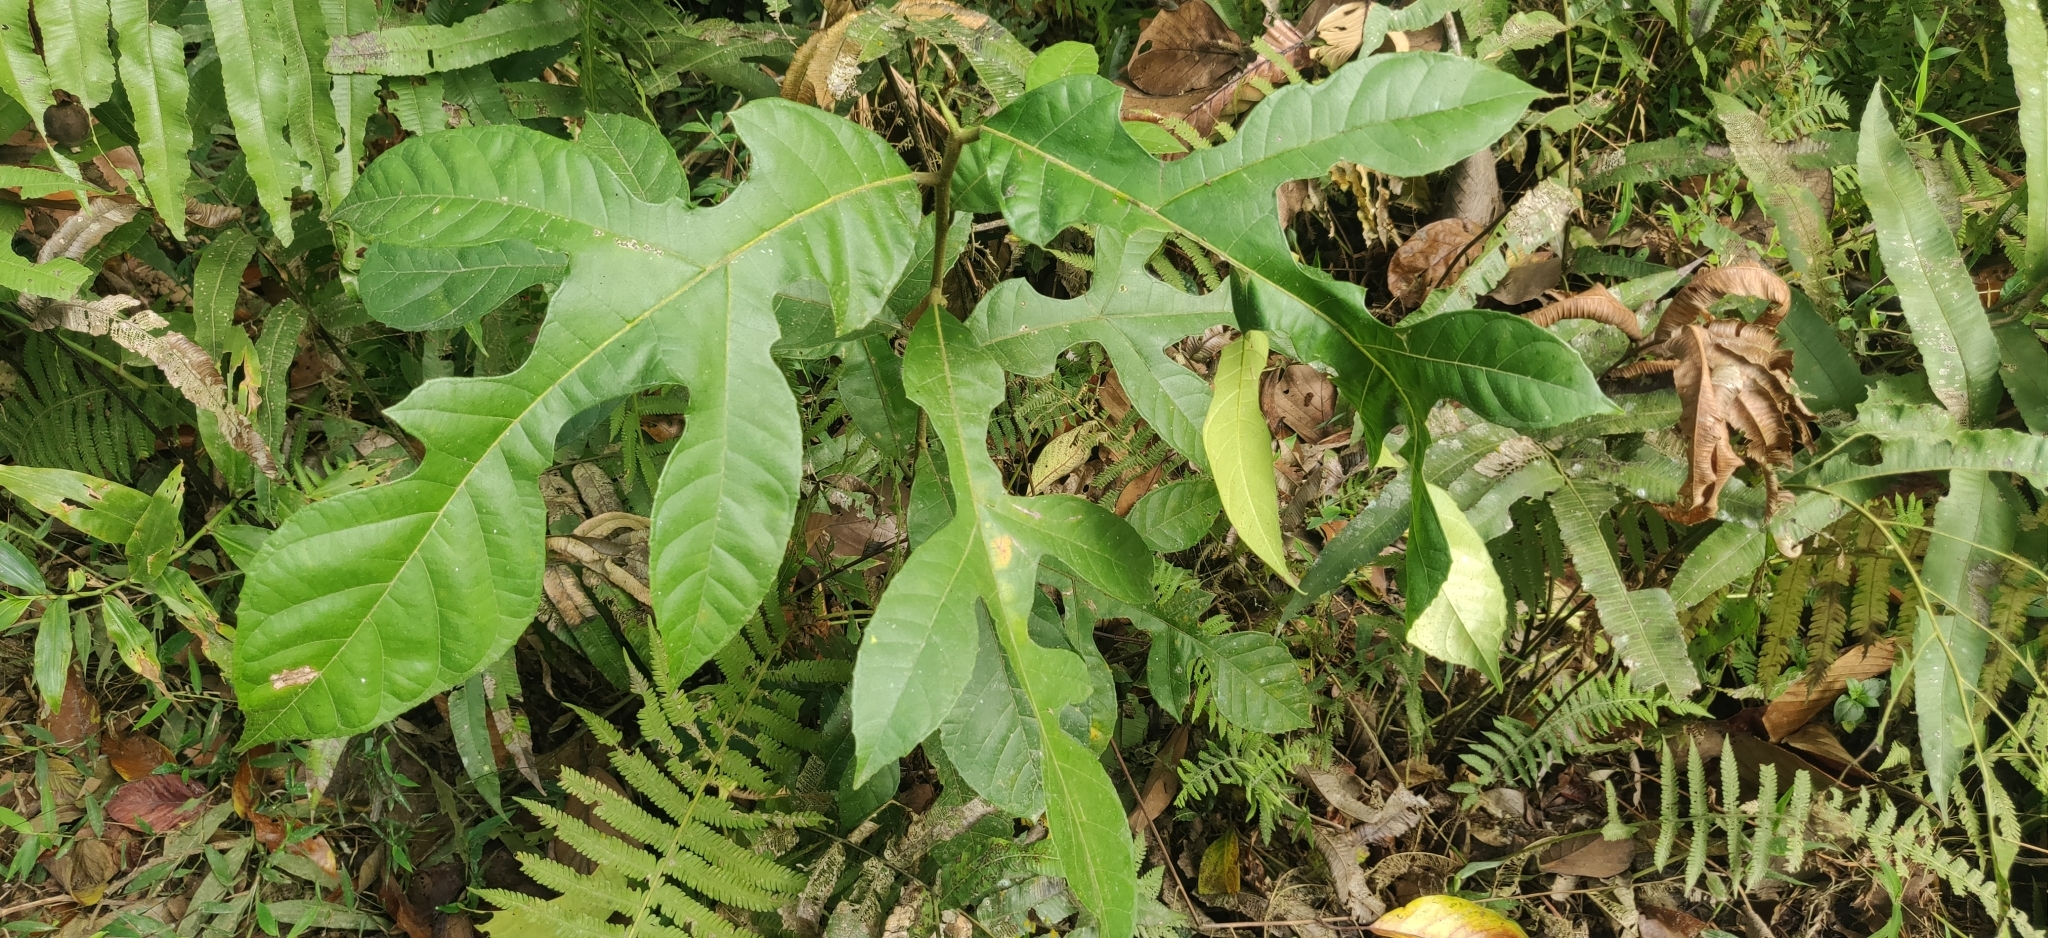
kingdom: Plantae
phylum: Tracheophyta
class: Magnoliopsida
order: Rosales
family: Moraceae
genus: Artocarpus
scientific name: Artocarpus chama
